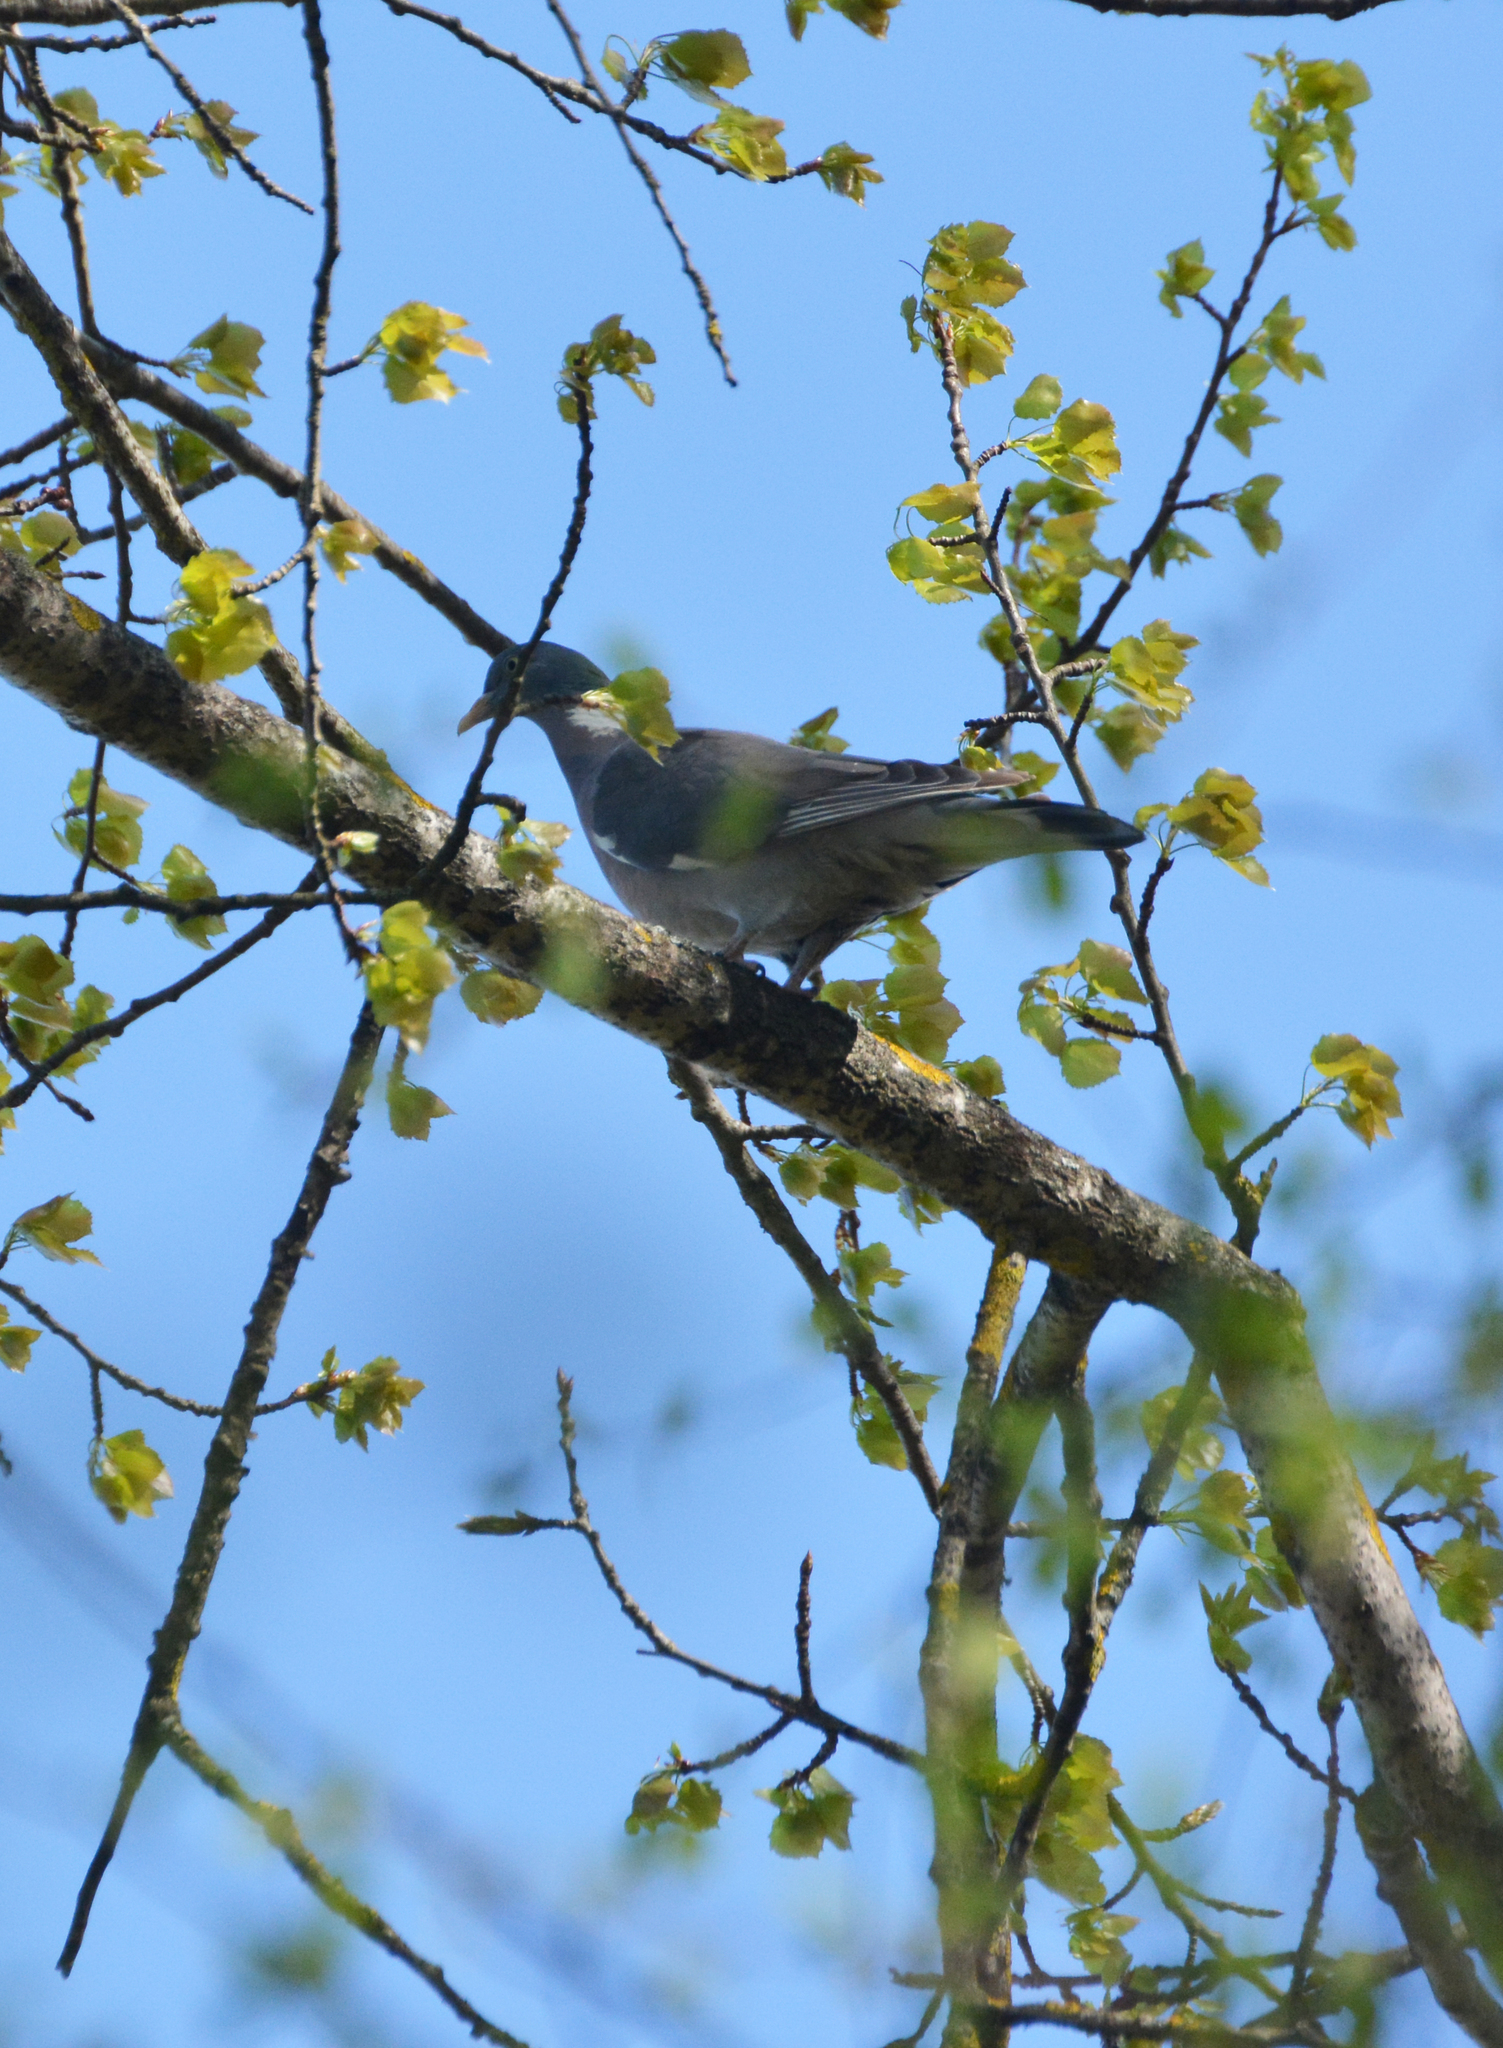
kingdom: Animalia
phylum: Chordata
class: Aves
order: Columbiformes
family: Columbidae
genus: Columba
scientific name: Columba palumbus
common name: Common wood pigeon
